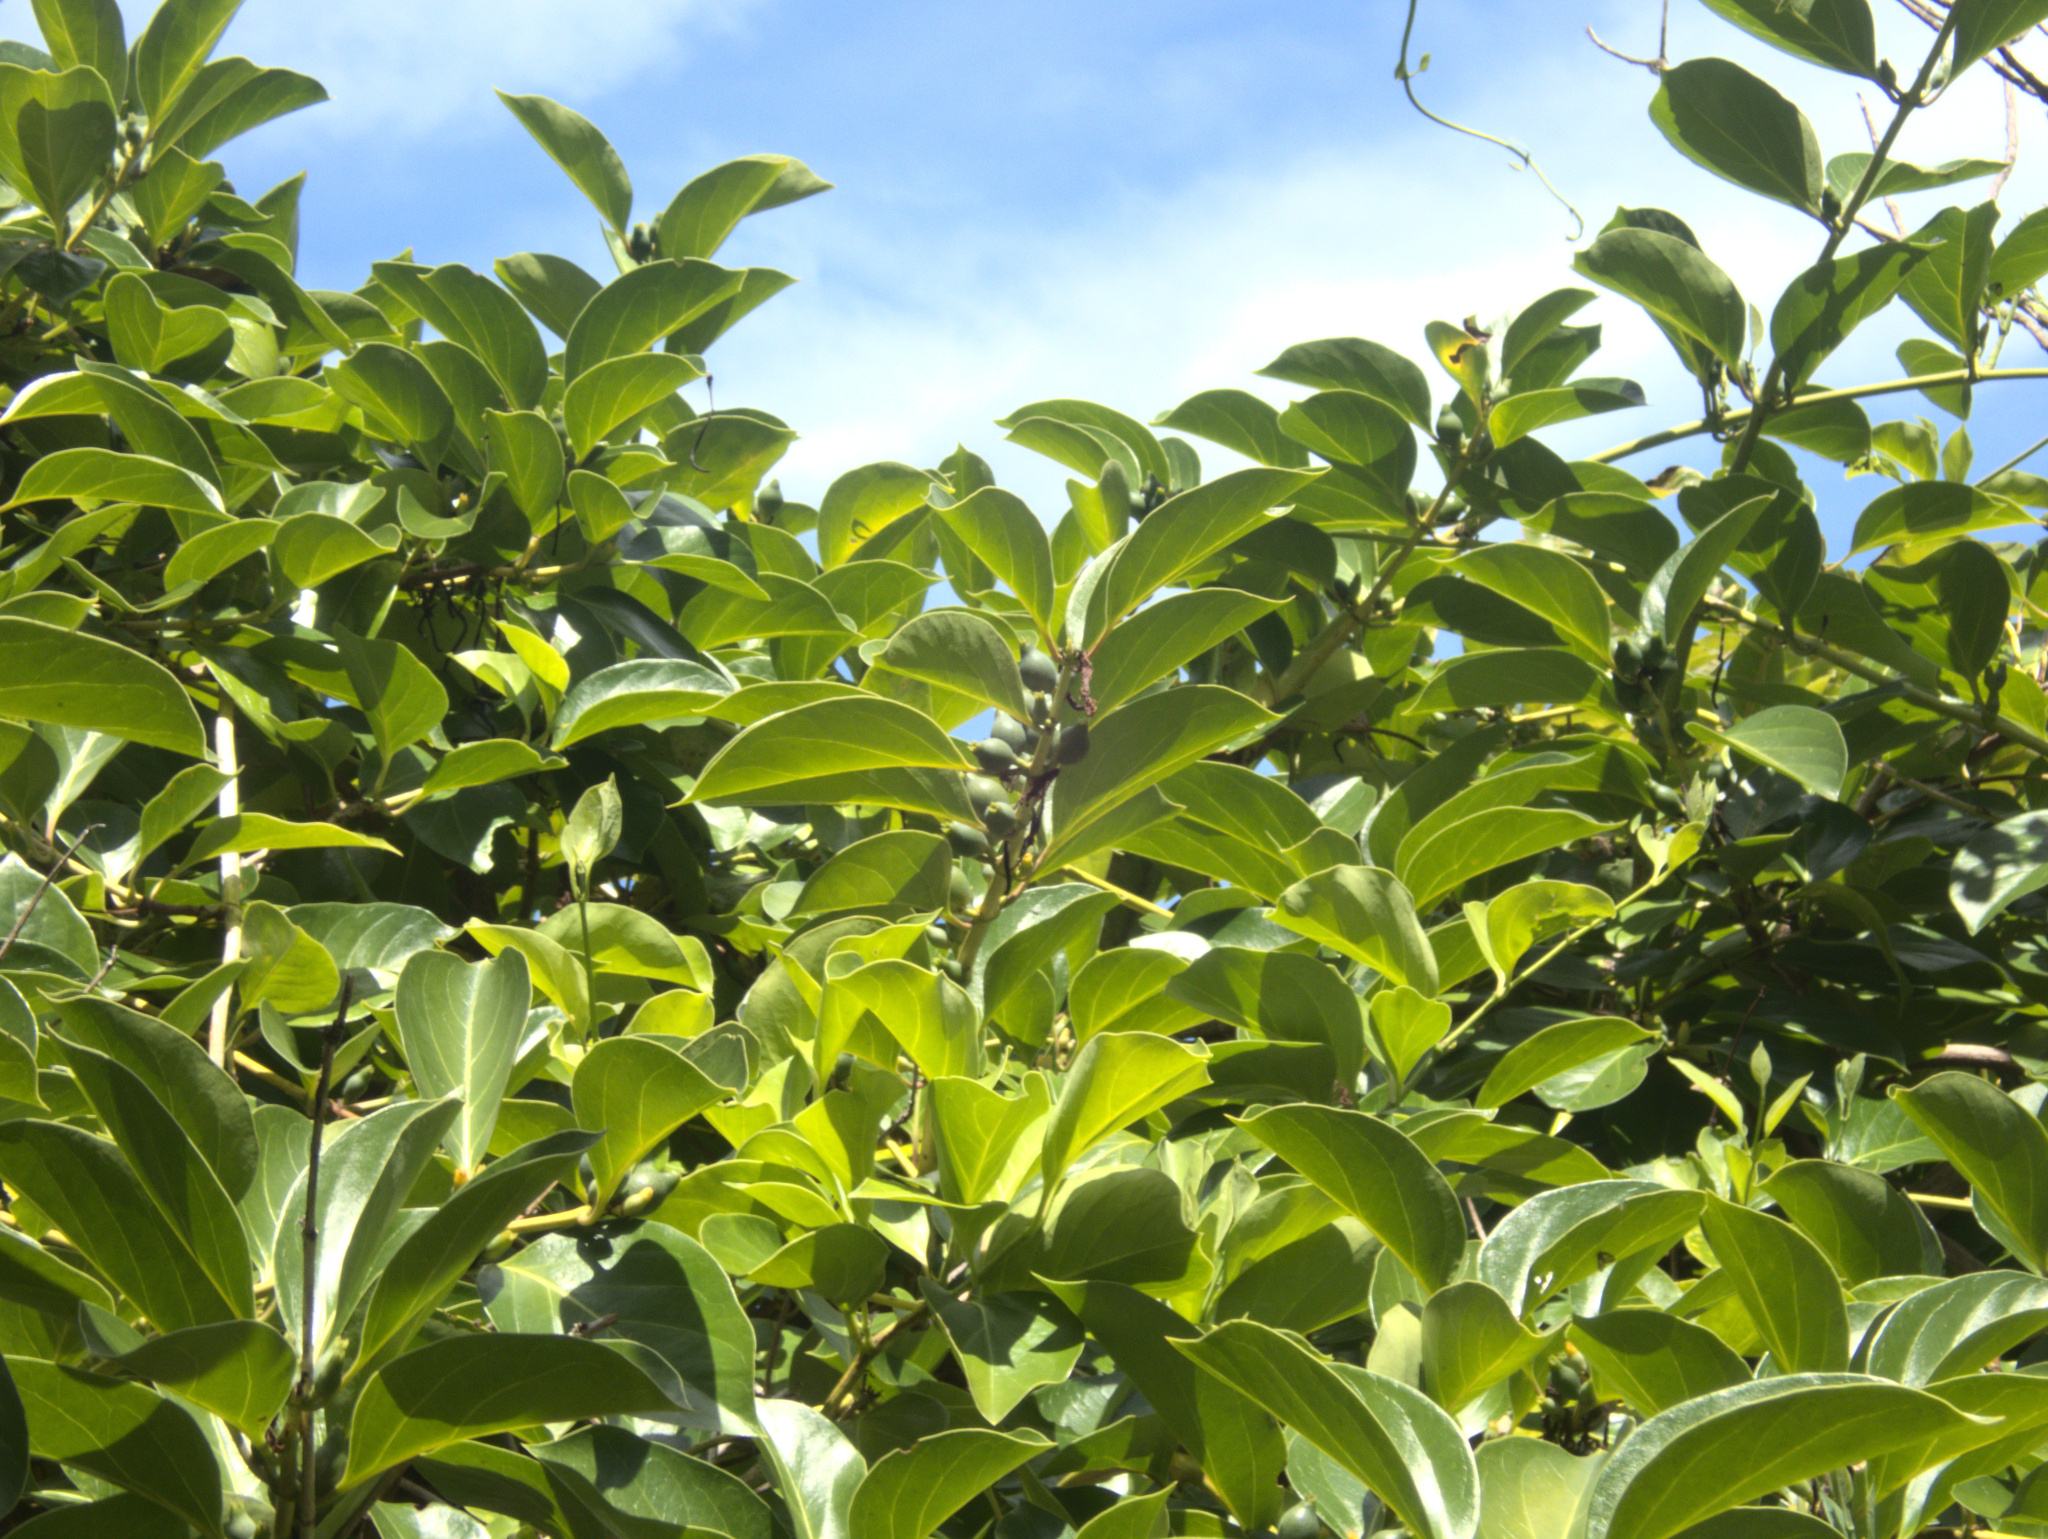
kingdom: Plantae
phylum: Tracheophyta
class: Magnoliopsida
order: Dipsacales
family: Caprifoliaceae
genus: Lonicera
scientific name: Lonicera hildebrandtiana
